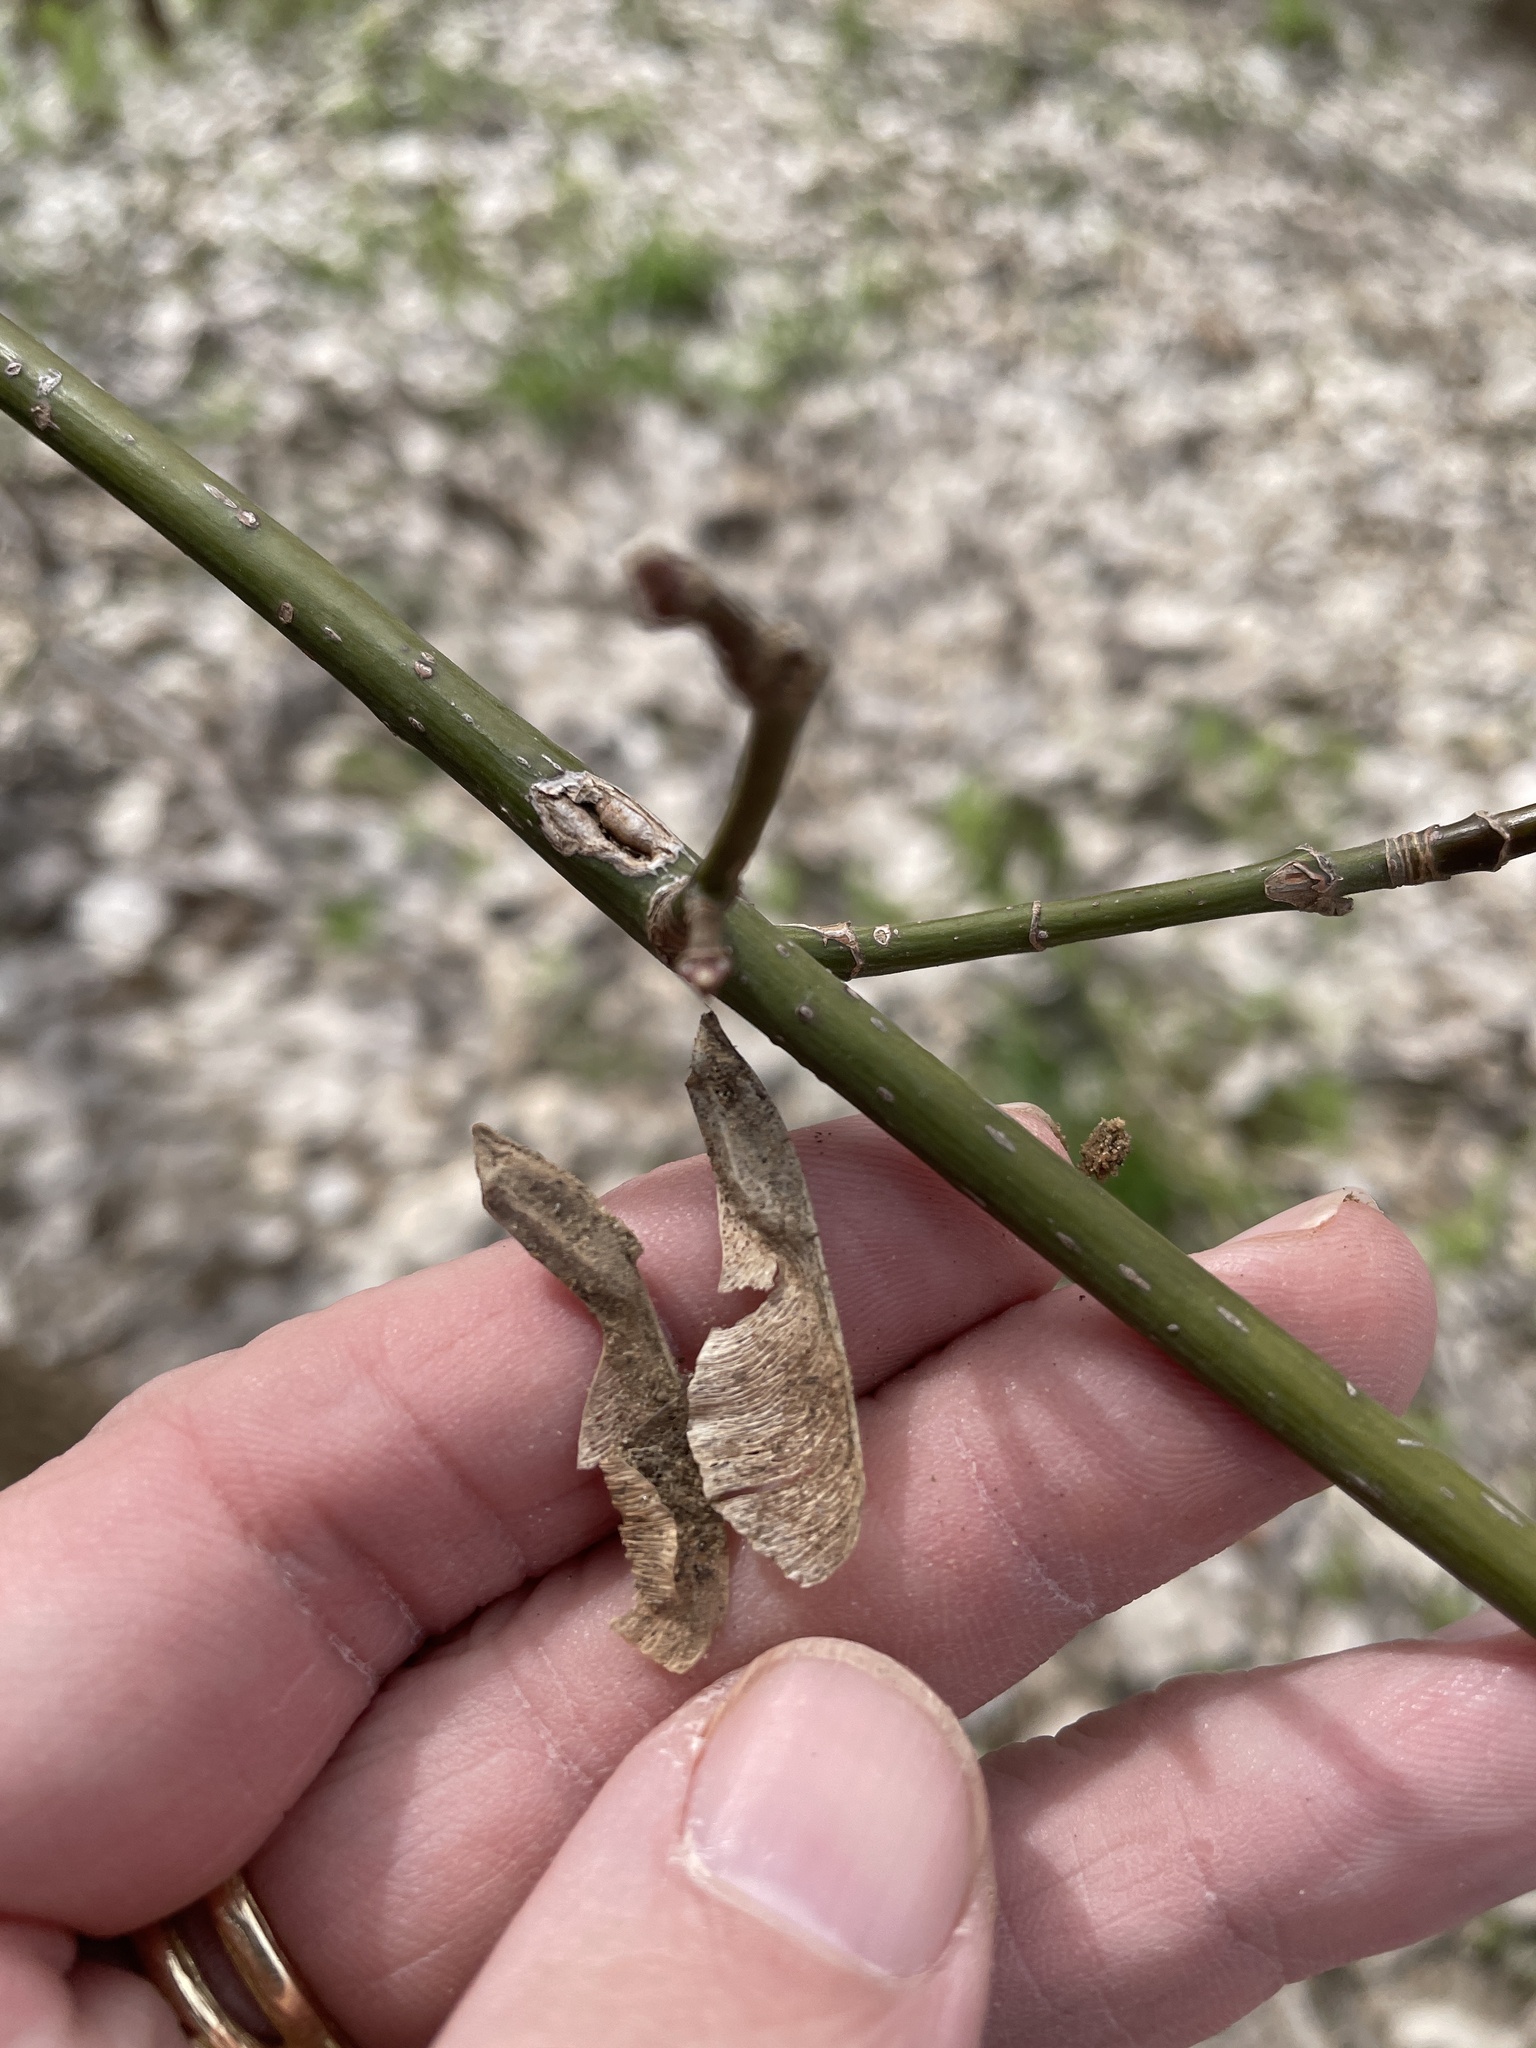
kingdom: Plantae
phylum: Tracheophyta
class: Magnoliopsida
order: Sapindales
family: Sapindaceae
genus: Acer
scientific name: Acer negundo
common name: Ashleaf maple
